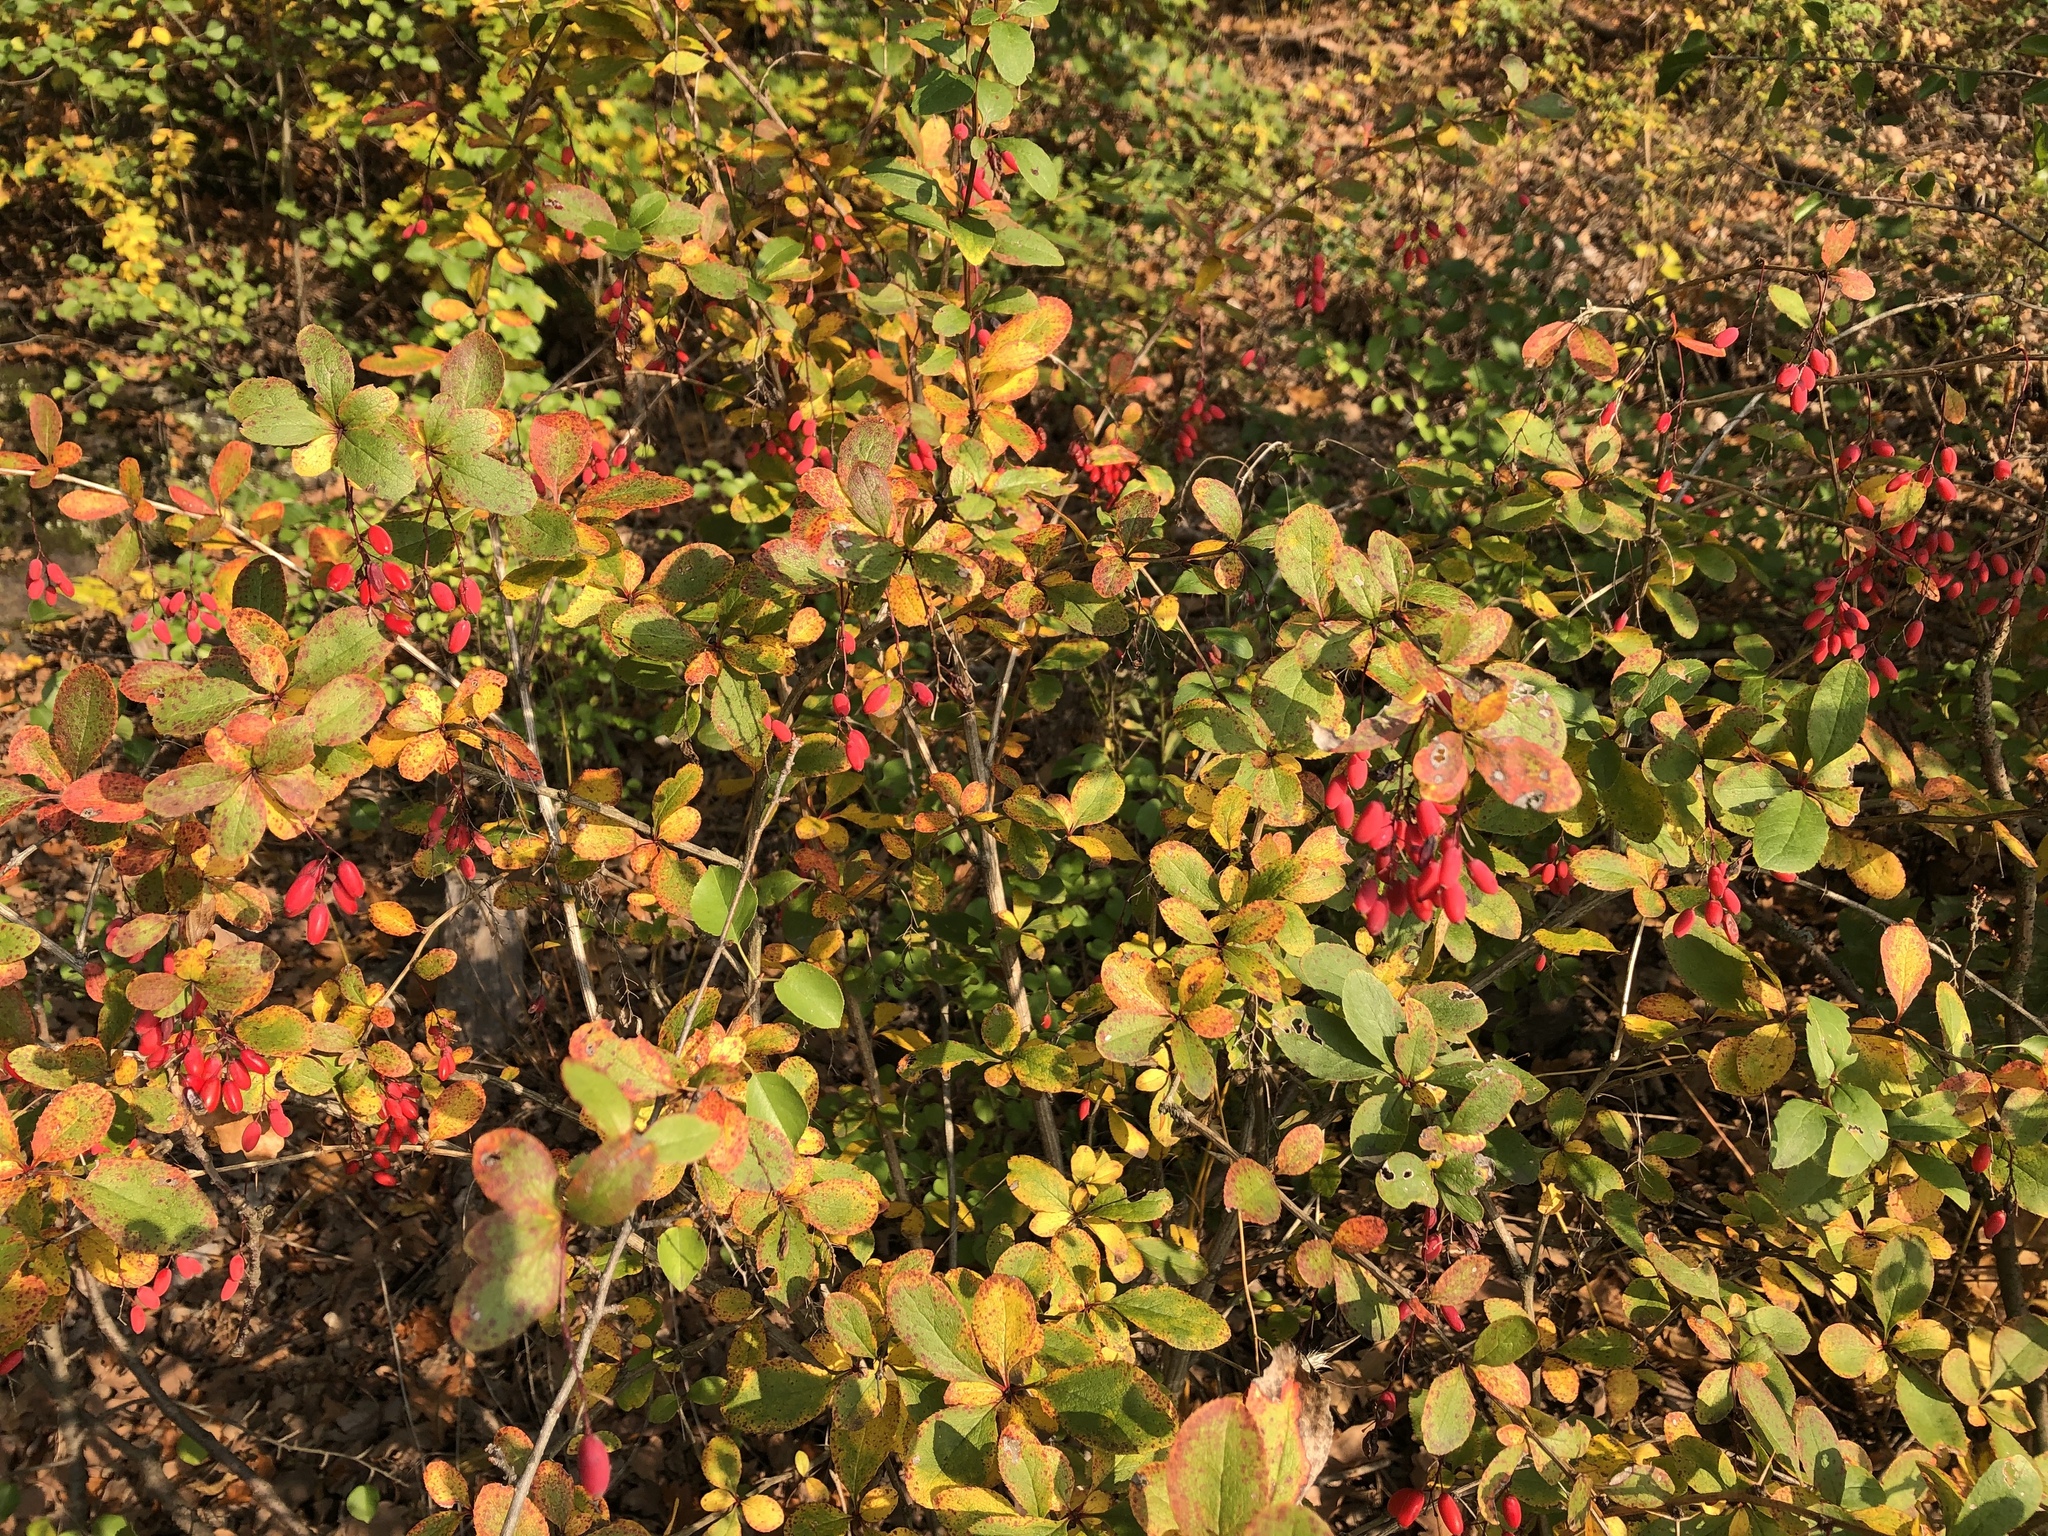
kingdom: Plantae
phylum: Tracheophyta
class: Magnoliopsida
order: Ranunculales
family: Berberidaceae
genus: Berberis
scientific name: Berberis vulgaris
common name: Barberry
